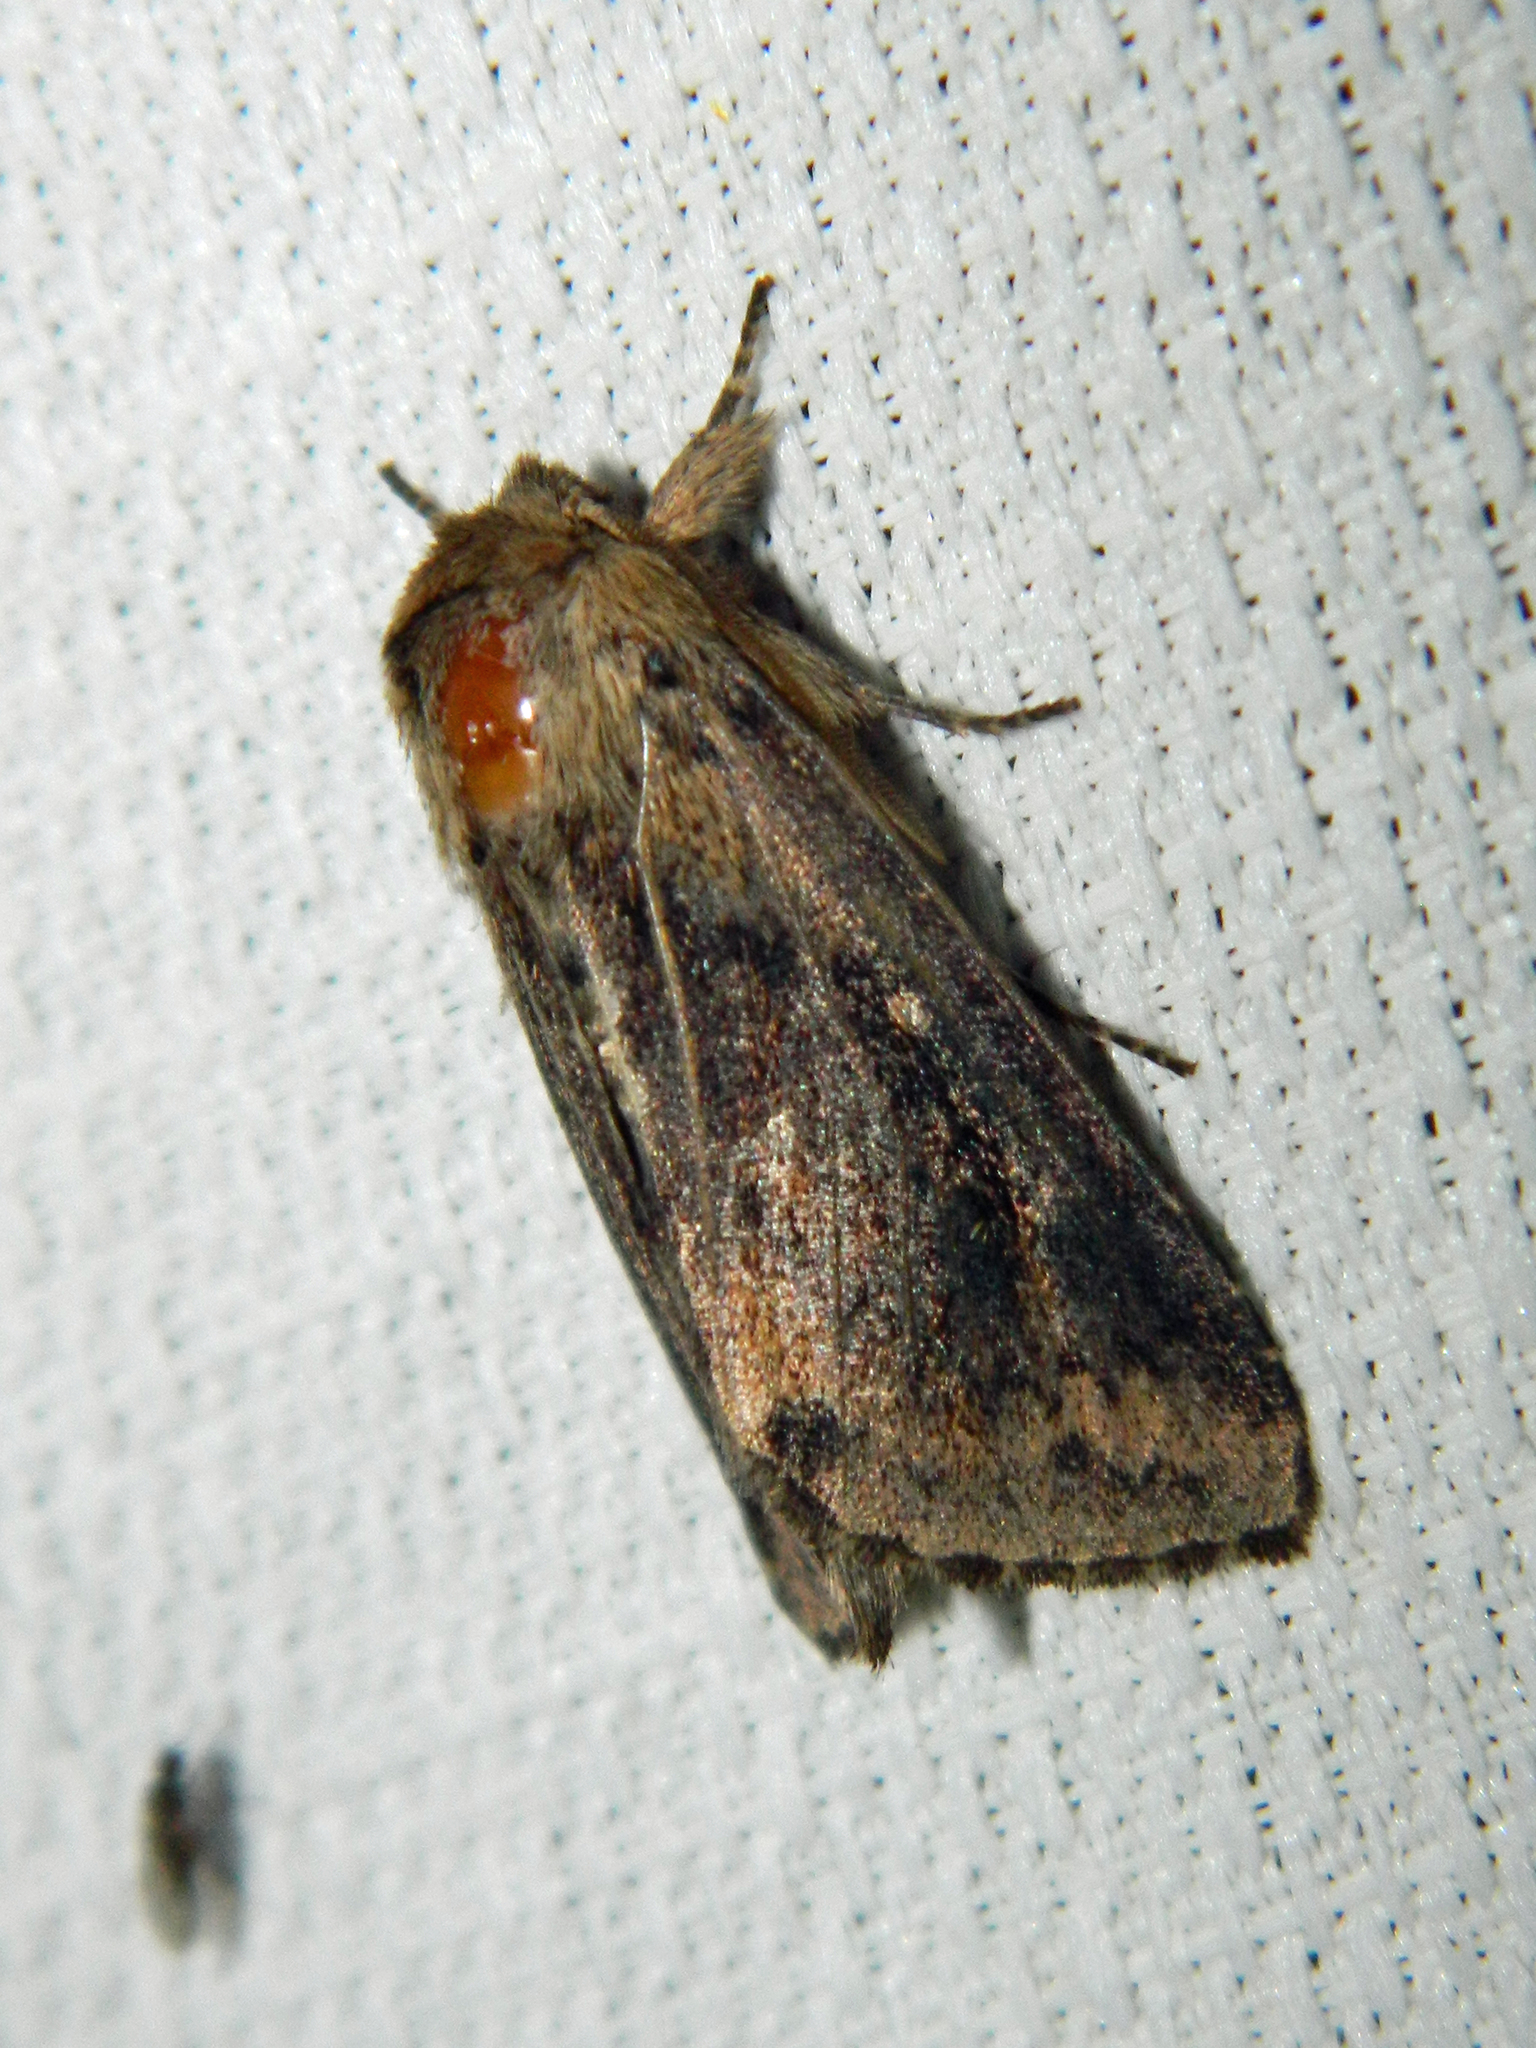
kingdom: Animalia
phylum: Arthropoda
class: Insecta
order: Lepidoptera
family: Noctuidae
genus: Bellura
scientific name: Bellura vulnifica
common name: Black-tailed diver moth
